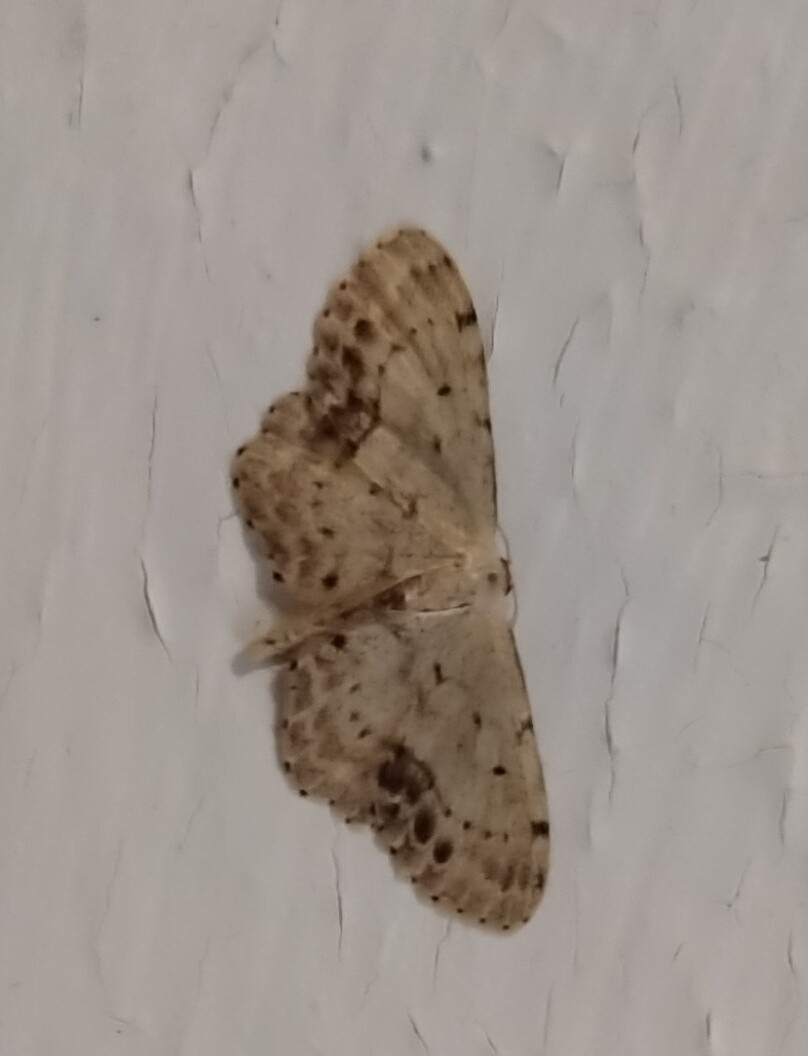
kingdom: Animalia
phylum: Arthropoda
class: Insecta
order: Lepidoptera
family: Geometridae
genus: Idaea
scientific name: Idaea dimidiata
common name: Single-dotted wave
